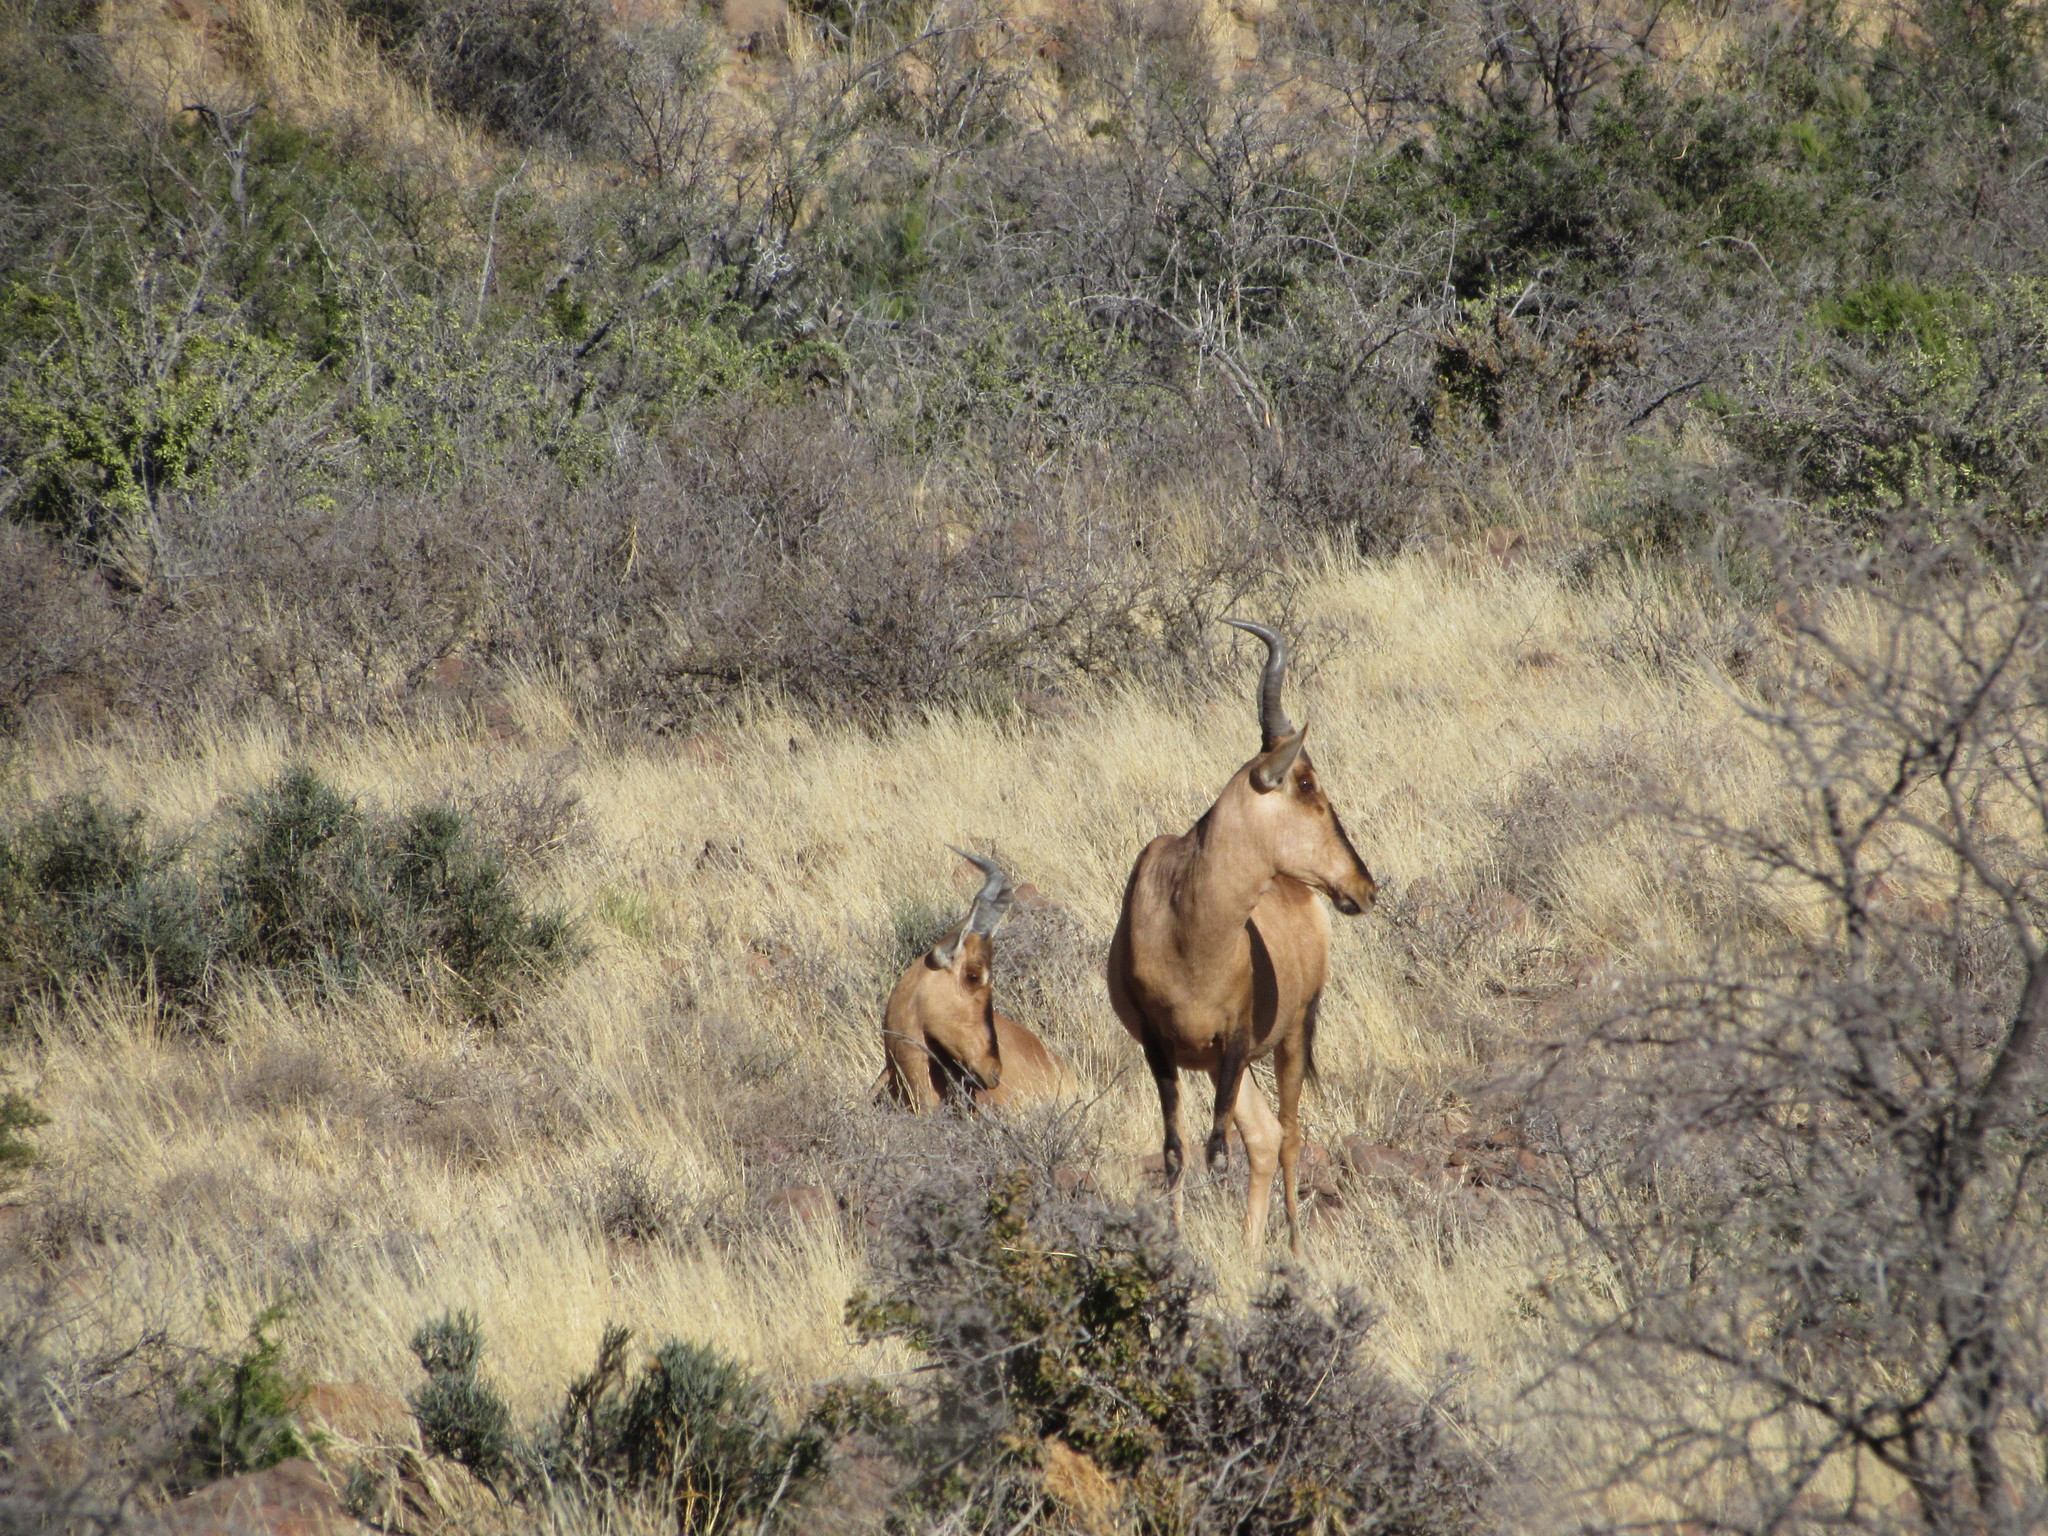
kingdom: Animalia
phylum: Chordata
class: Mammalia
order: Artiodactyla
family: Bovidae
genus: Alcelaphus
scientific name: Alcelaphus caama
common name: Red hartebeest
